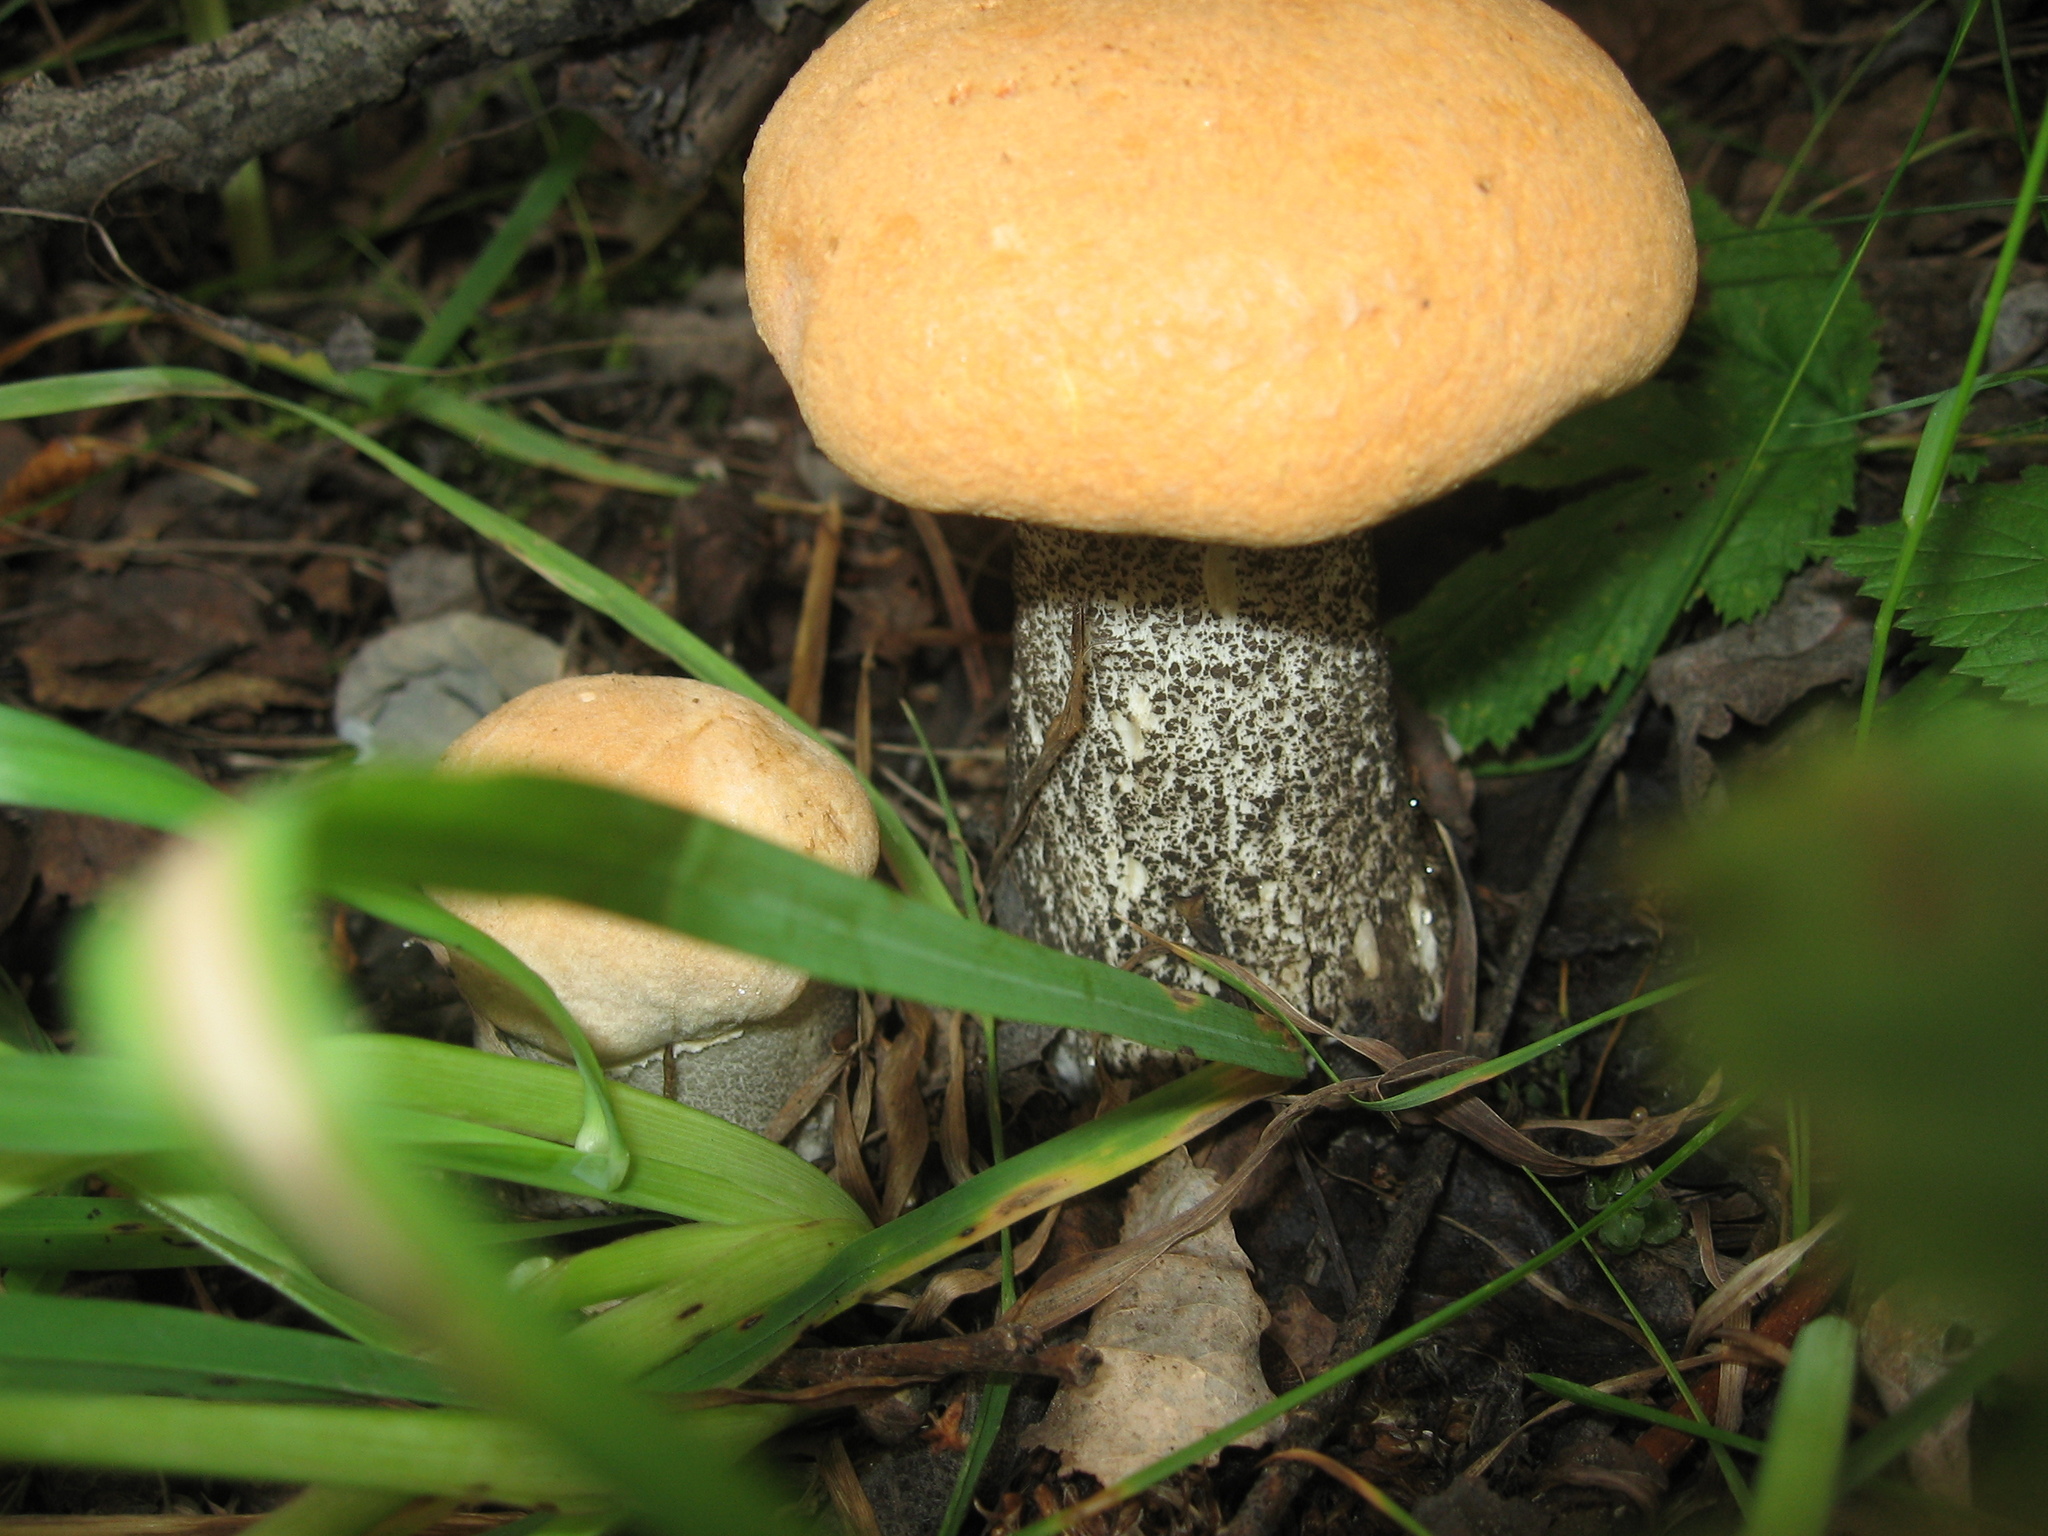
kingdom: Fungi
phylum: Basidiomycota
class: Agaricomycetes
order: Boletales
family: Boletaceae
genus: Leccinum
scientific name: Leccinum versipelle
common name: Orange birch bolete
